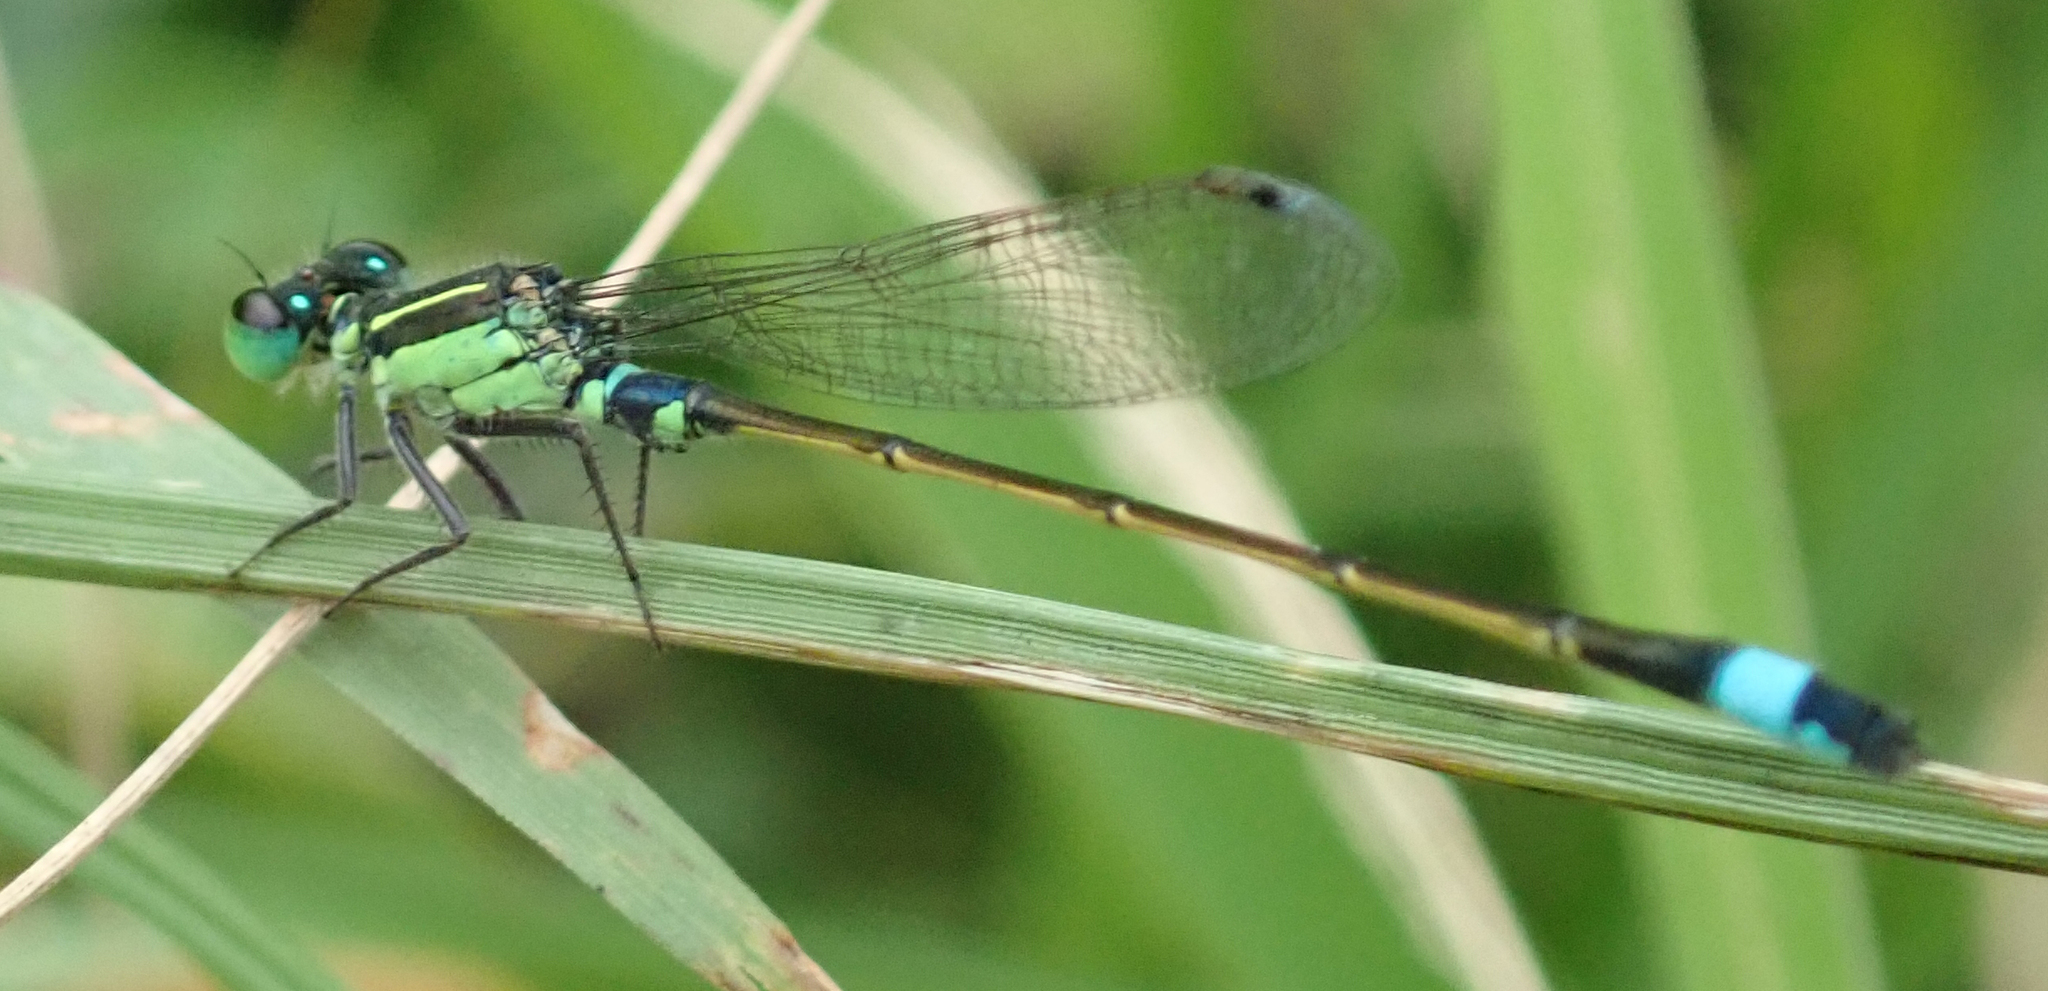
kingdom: Animalia
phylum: Arthropoda
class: Insecta
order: Odonata
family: Coenagrionidae
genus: Ischnura
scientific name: Ischnura senegalensis
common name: Tropical bluetail
